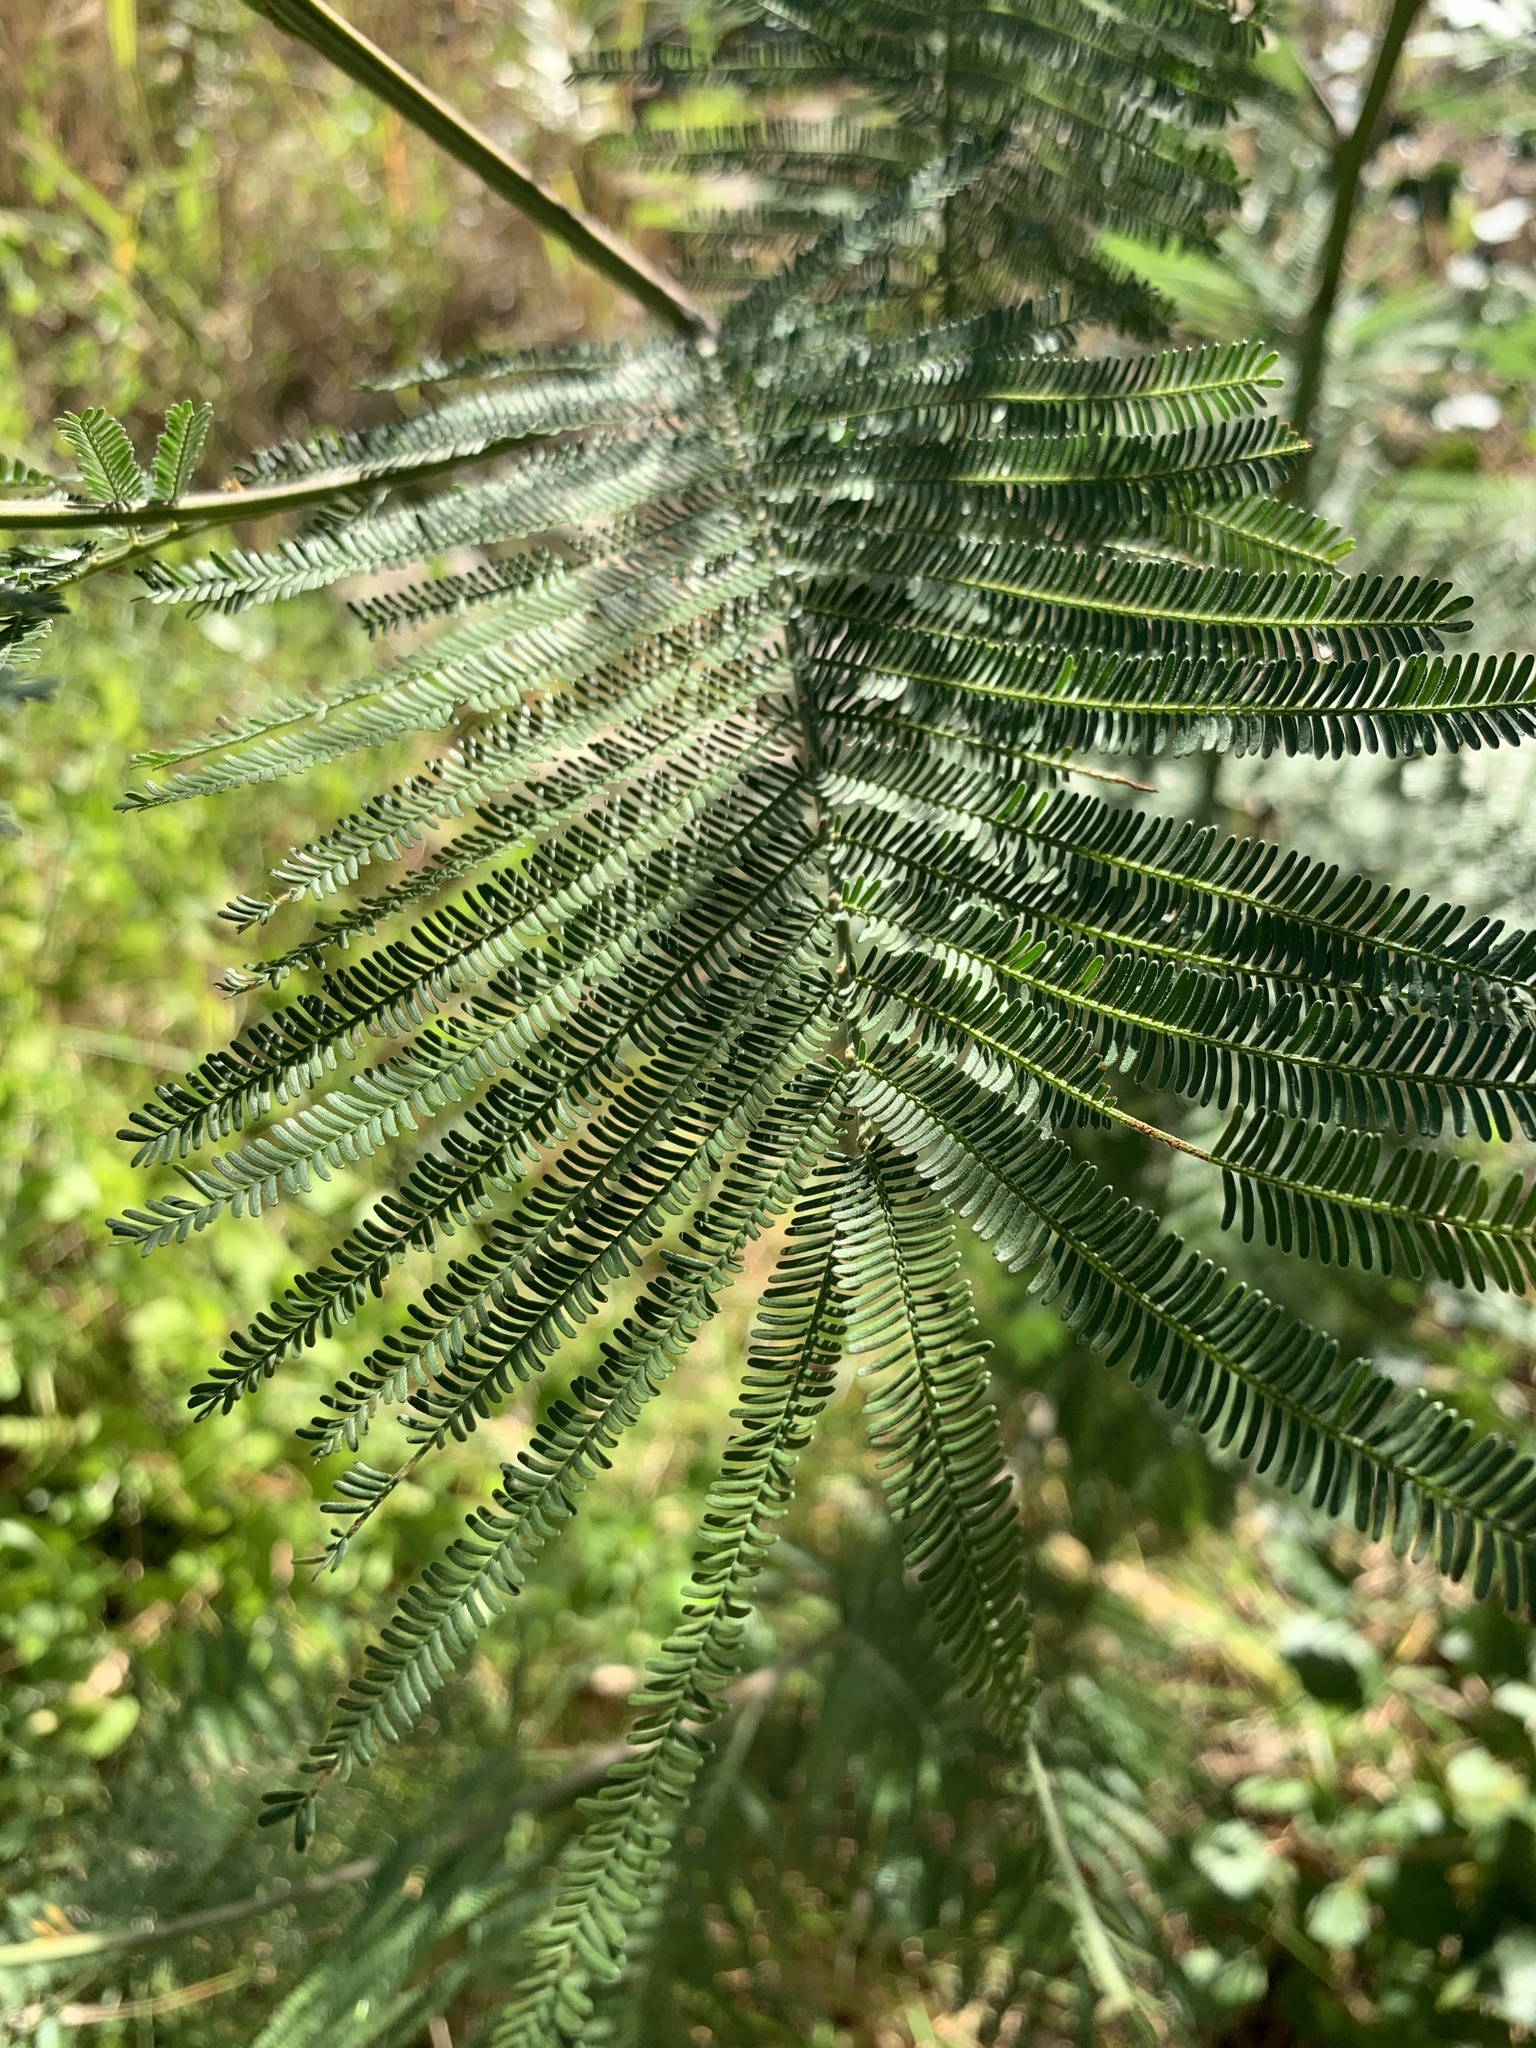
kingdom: Plantae
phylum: Tracheophyta
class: Magnoliopsida
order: Fabales
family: Fabaceae
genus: Acacia
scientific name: Acacia mearnsii
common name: Black wattle
